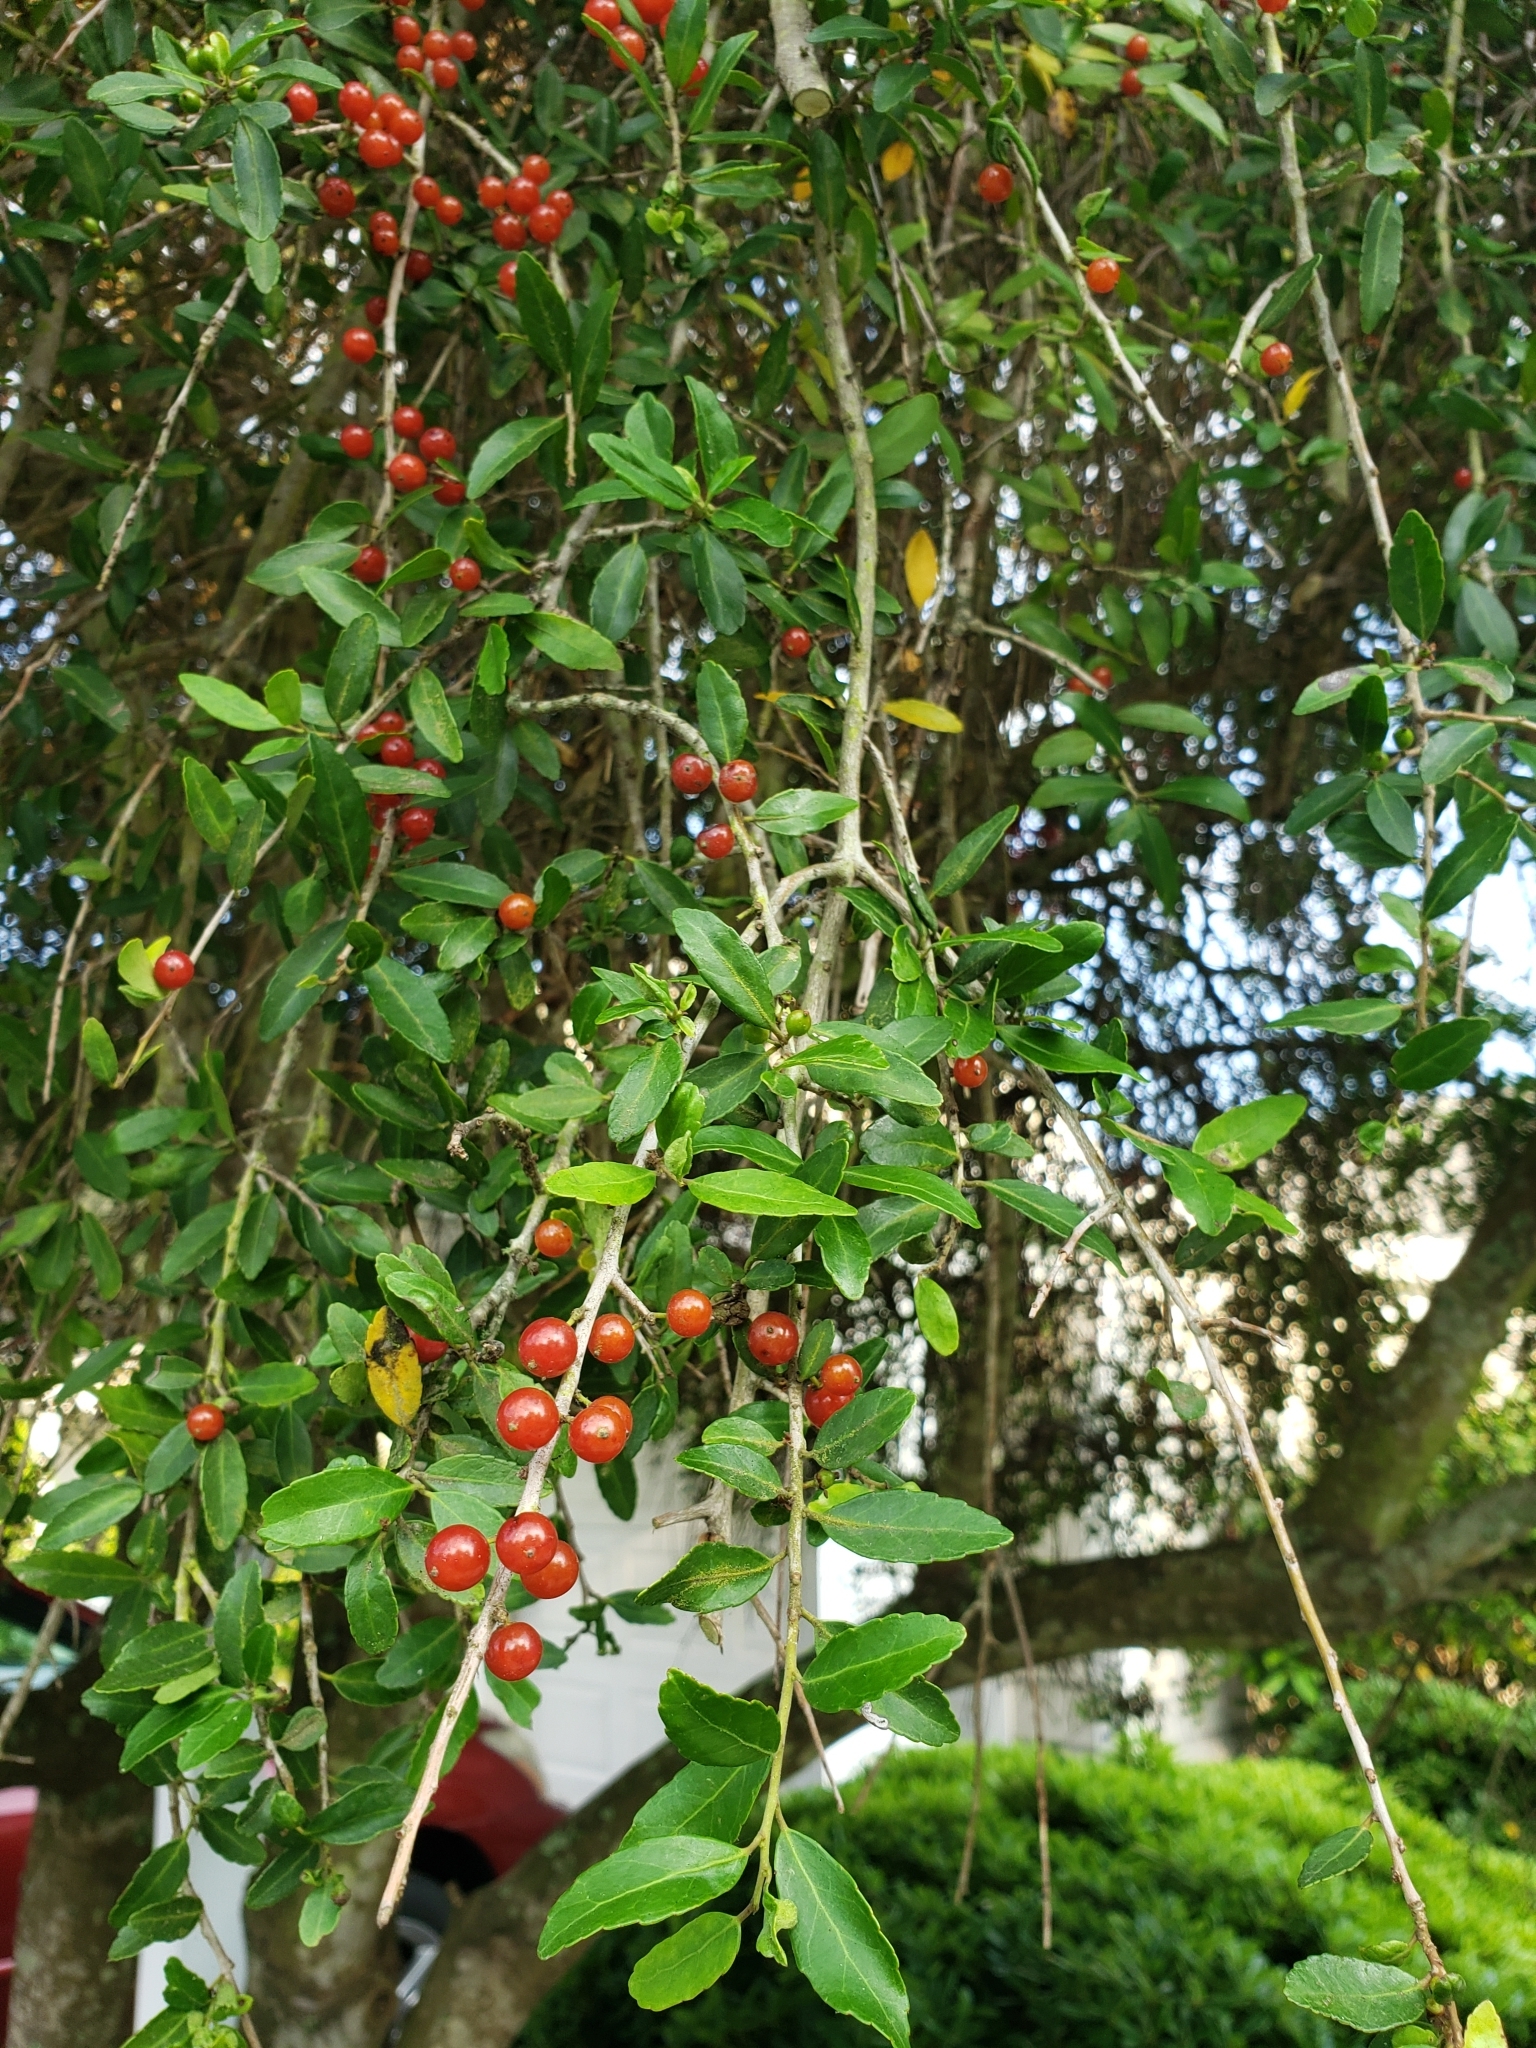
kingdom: Plantae
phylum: Tracheophyta
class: Magnoliopsida
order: Aquifoliales
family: Aquifoliaceae
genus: Ilex
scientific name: Ilex vomitoria
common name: Yaupon holly
